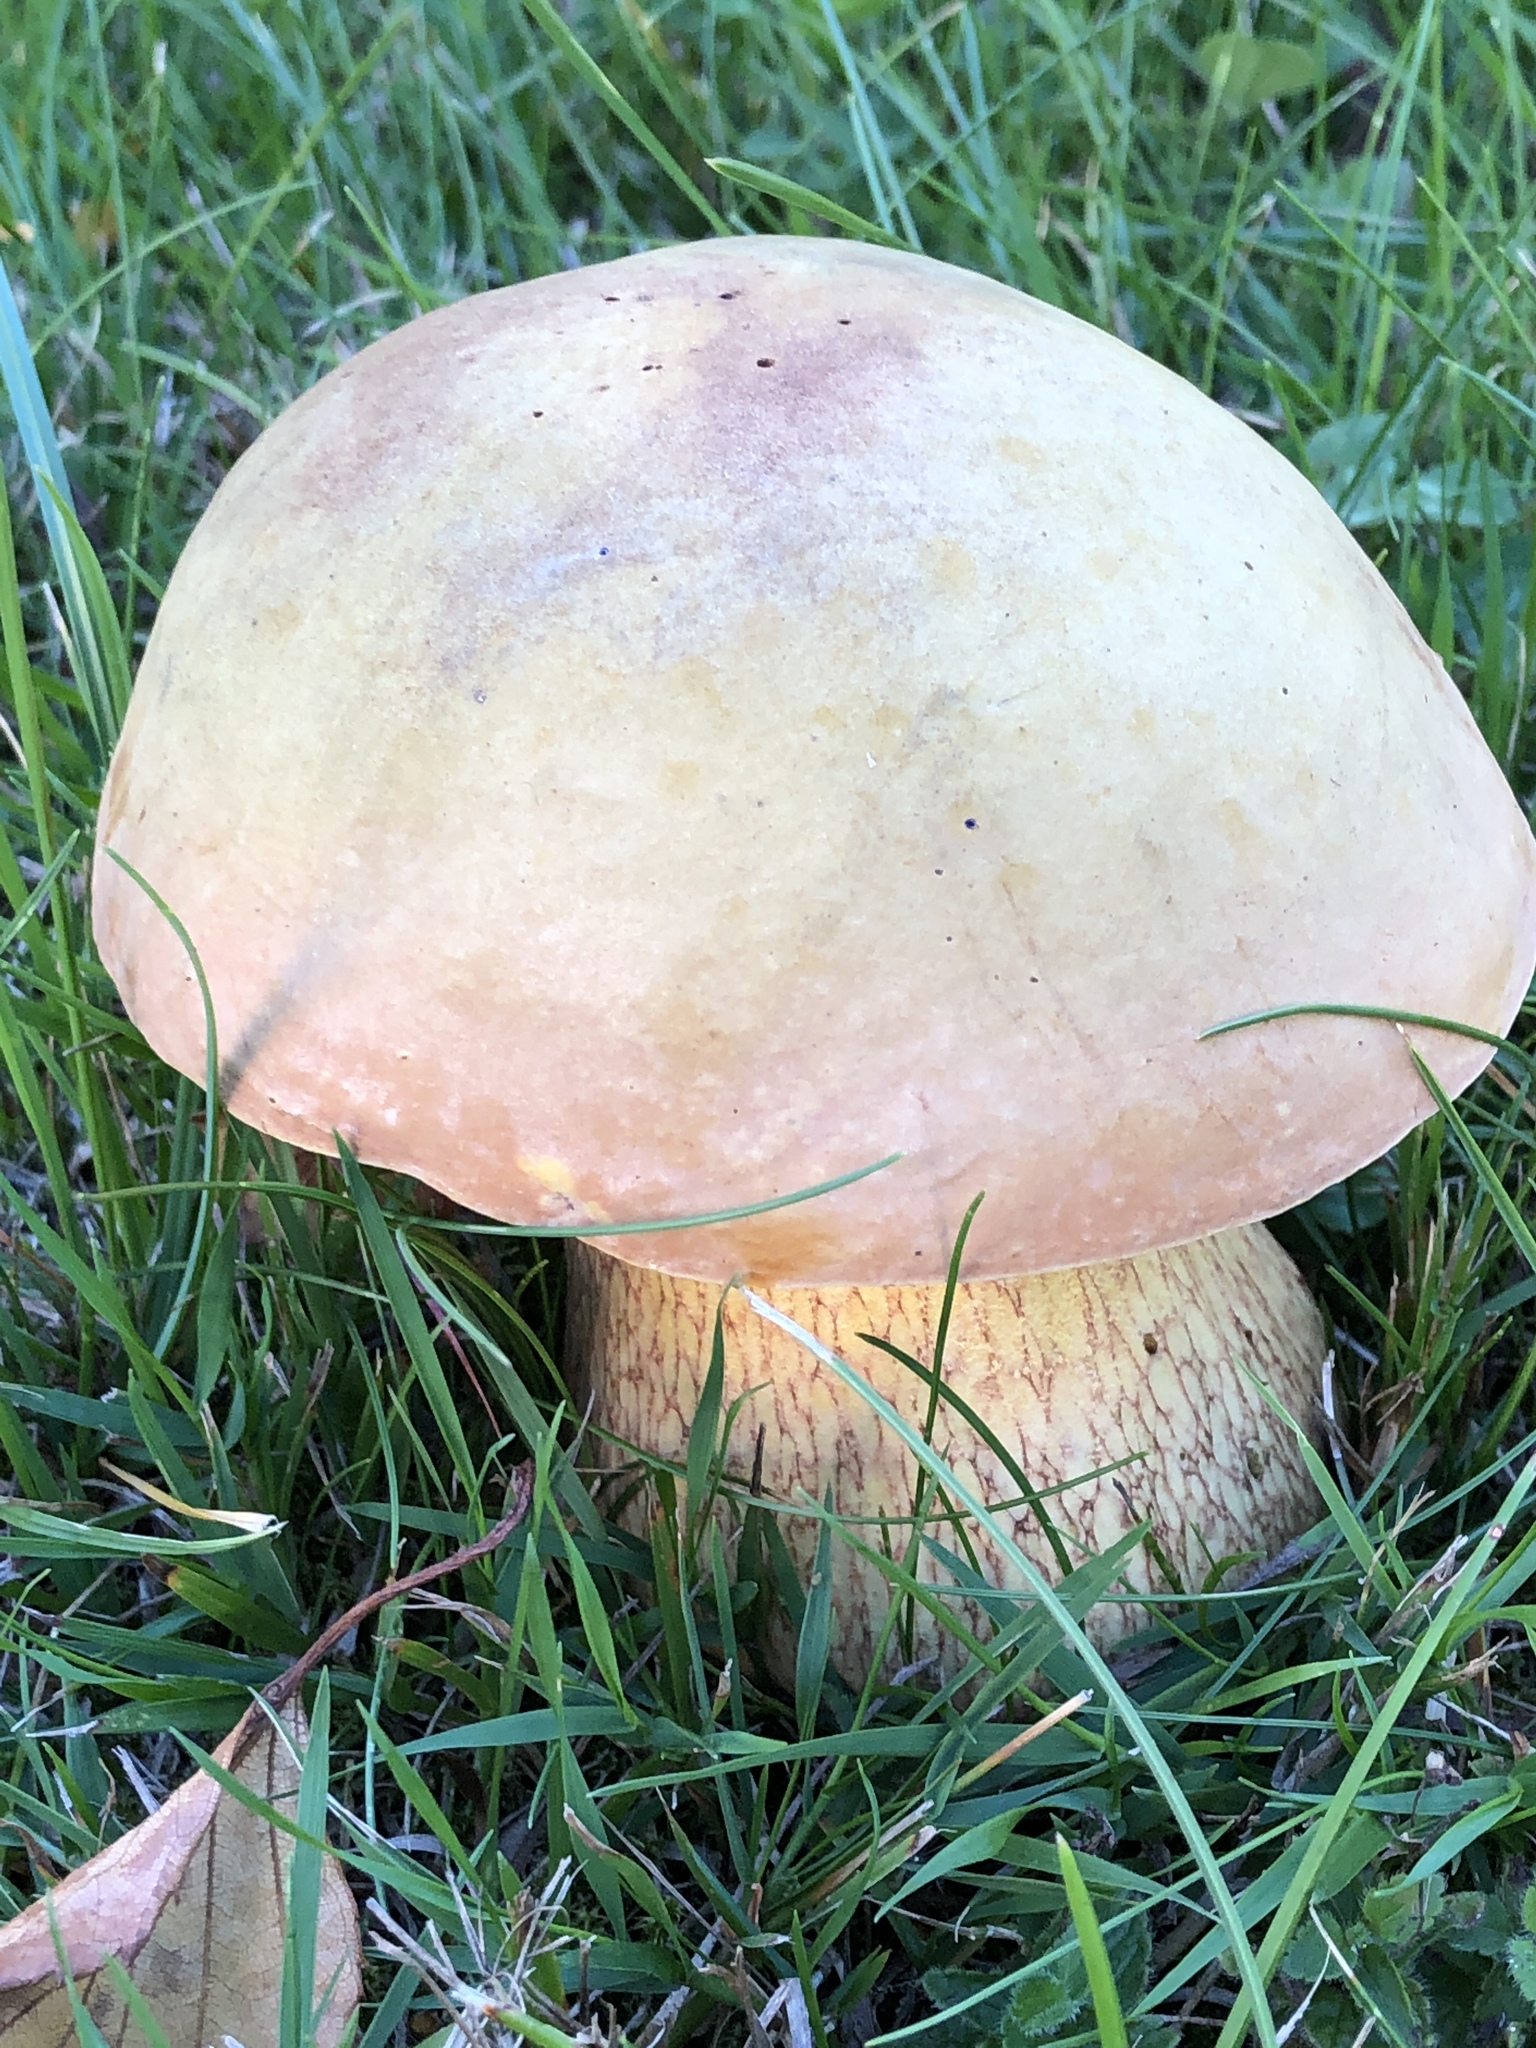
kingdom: Fungi
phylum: Basidiomycota
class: Agaricomycetes
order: Boletales
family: Boletaceae
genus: Suillellus
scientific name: Suillellus luridus
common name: Lurid bolete
